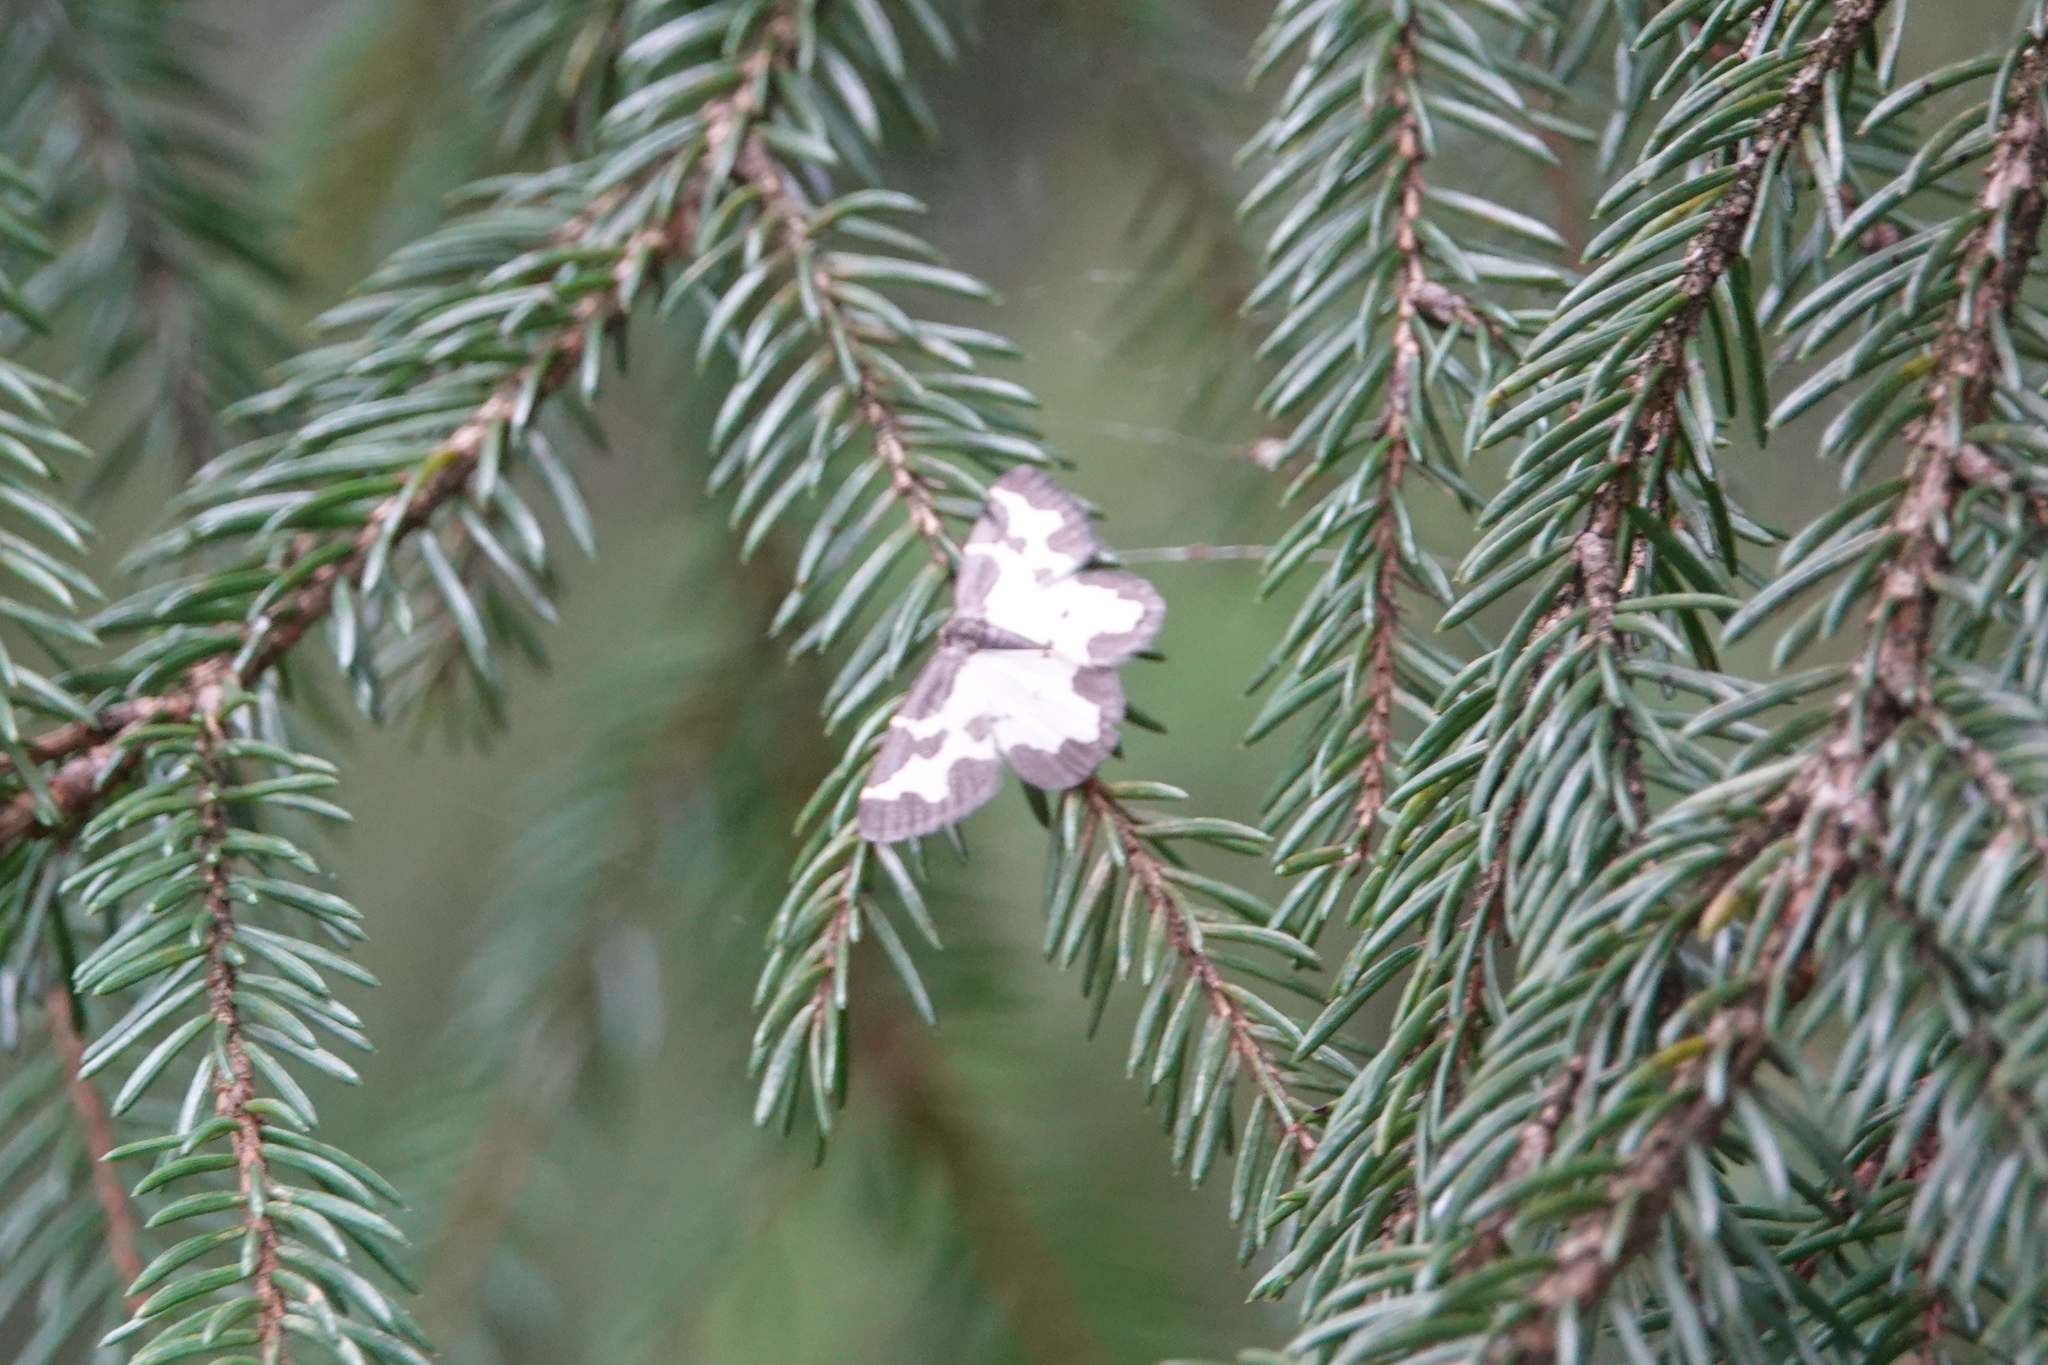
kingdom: Animalia
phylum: Arthropoda
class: Insecta
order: Lepidoptera
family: Geometridae
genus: Lomaspilis
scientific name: Lomaspilis marginata
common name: Clouded border
